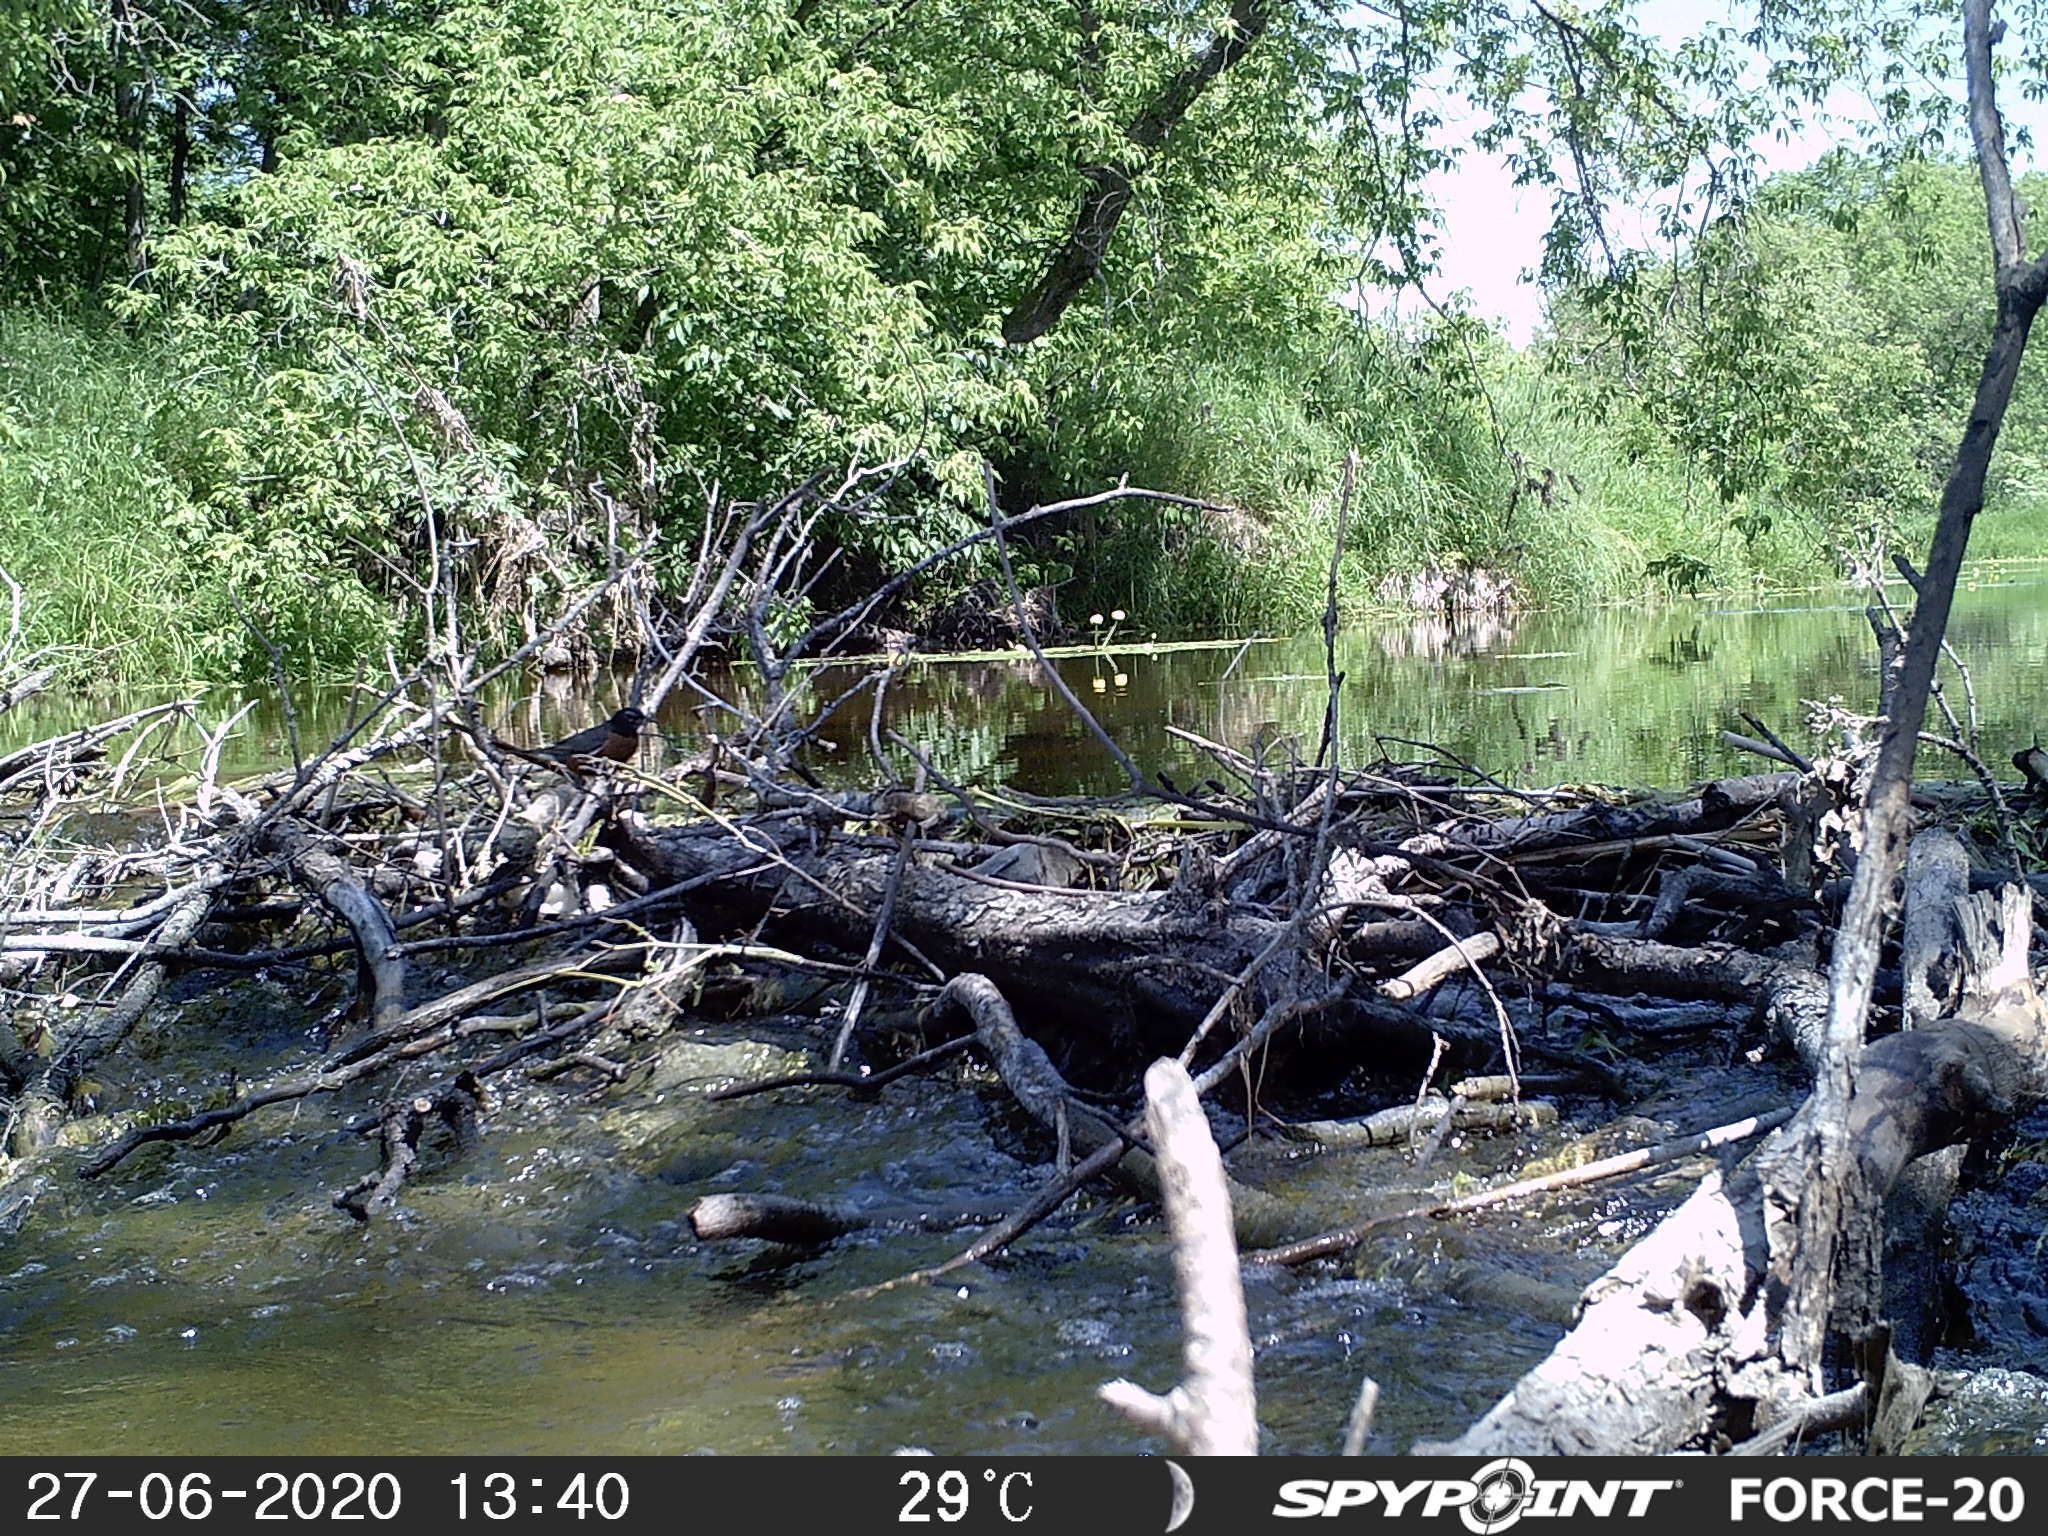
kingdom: Animalia
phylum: Chordata
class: Aves
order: Passeriformes
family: Turdidae
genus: Turdus
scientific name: Turdus migratorius
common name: American robin
